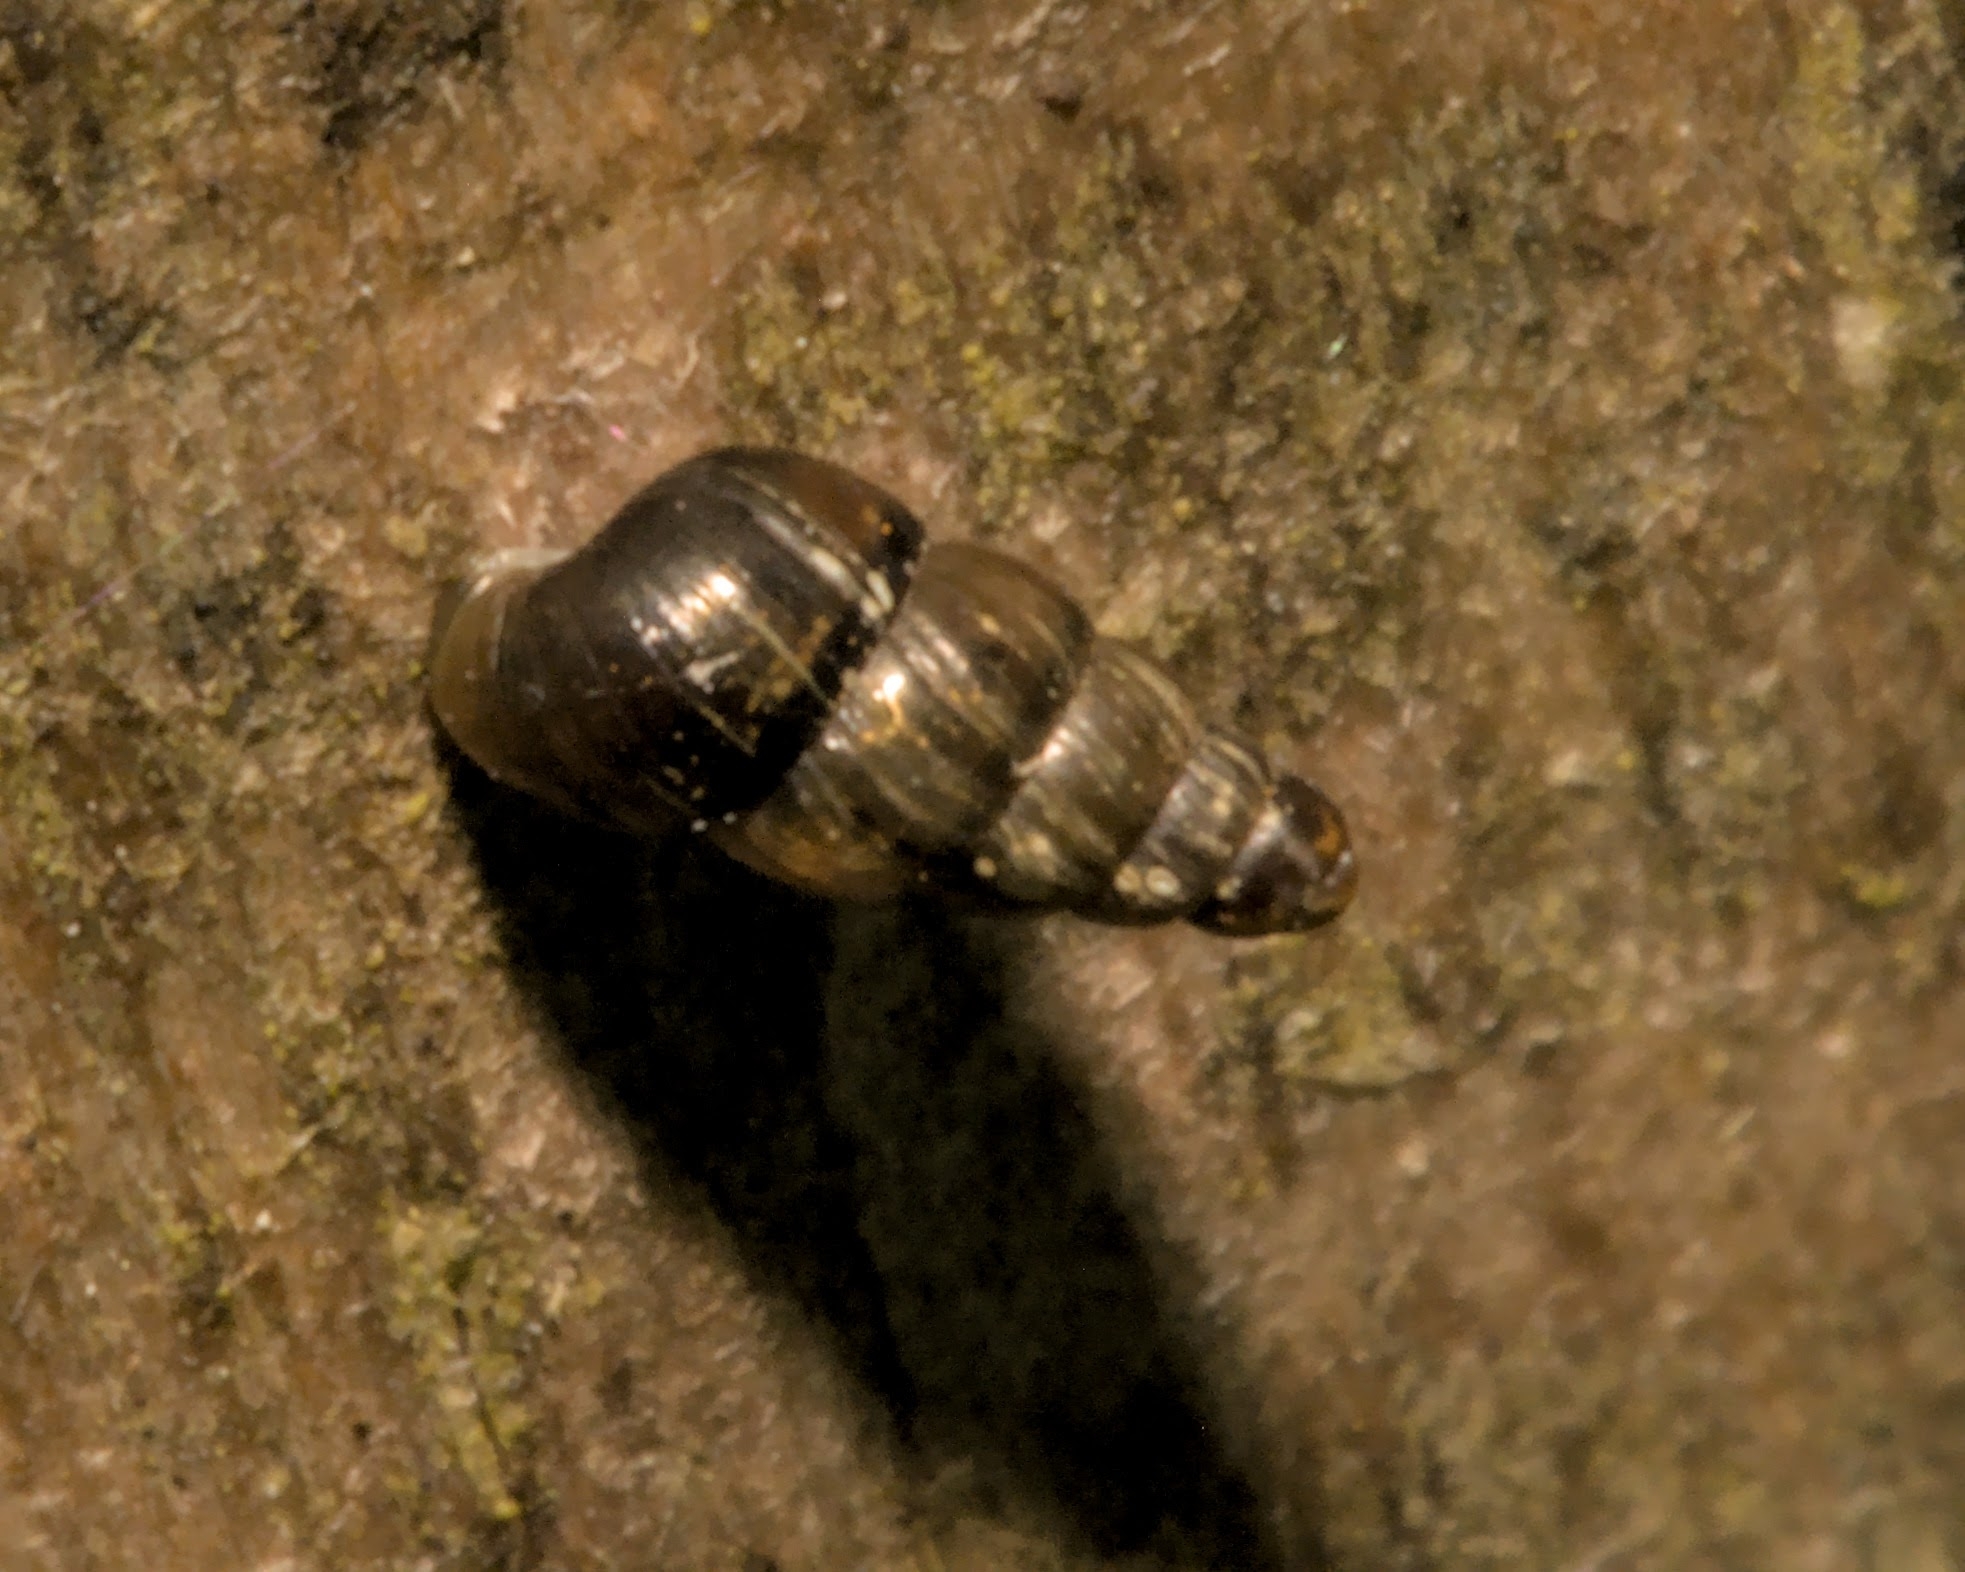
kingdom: Animalia
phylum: Mollusca
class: Gastropoda
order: Stylommatophora
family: Clausiliidae
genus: Balea
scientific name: Balea heydeni
